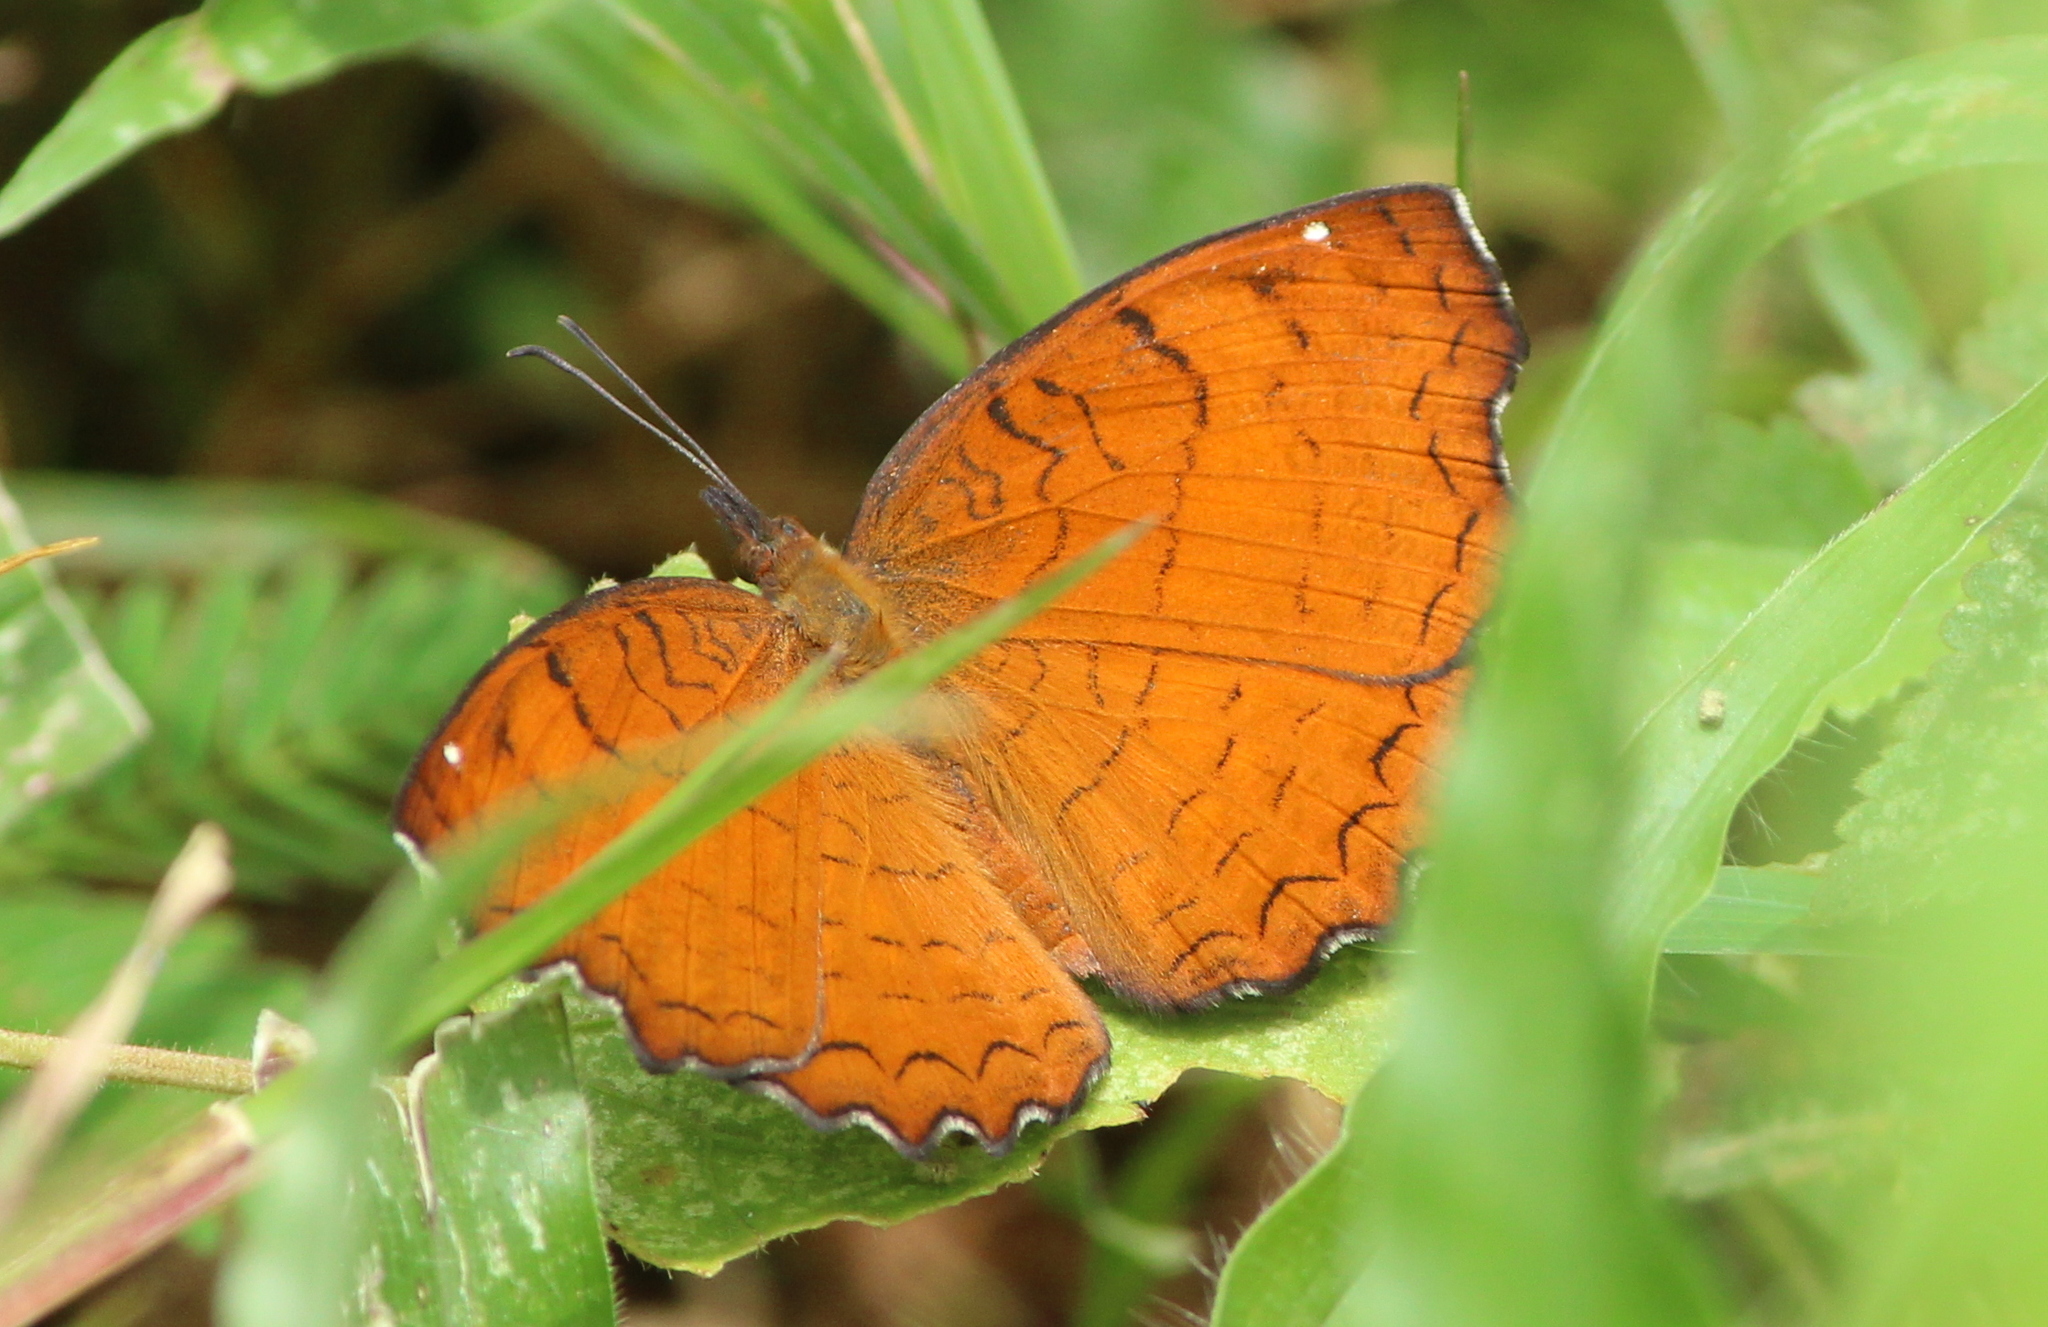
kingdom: Animalia
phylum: Arthropoda
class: Insecta
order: Lepidoptera
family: Nymphalidae
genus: Ariadne
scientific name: Ariadne ariadne
